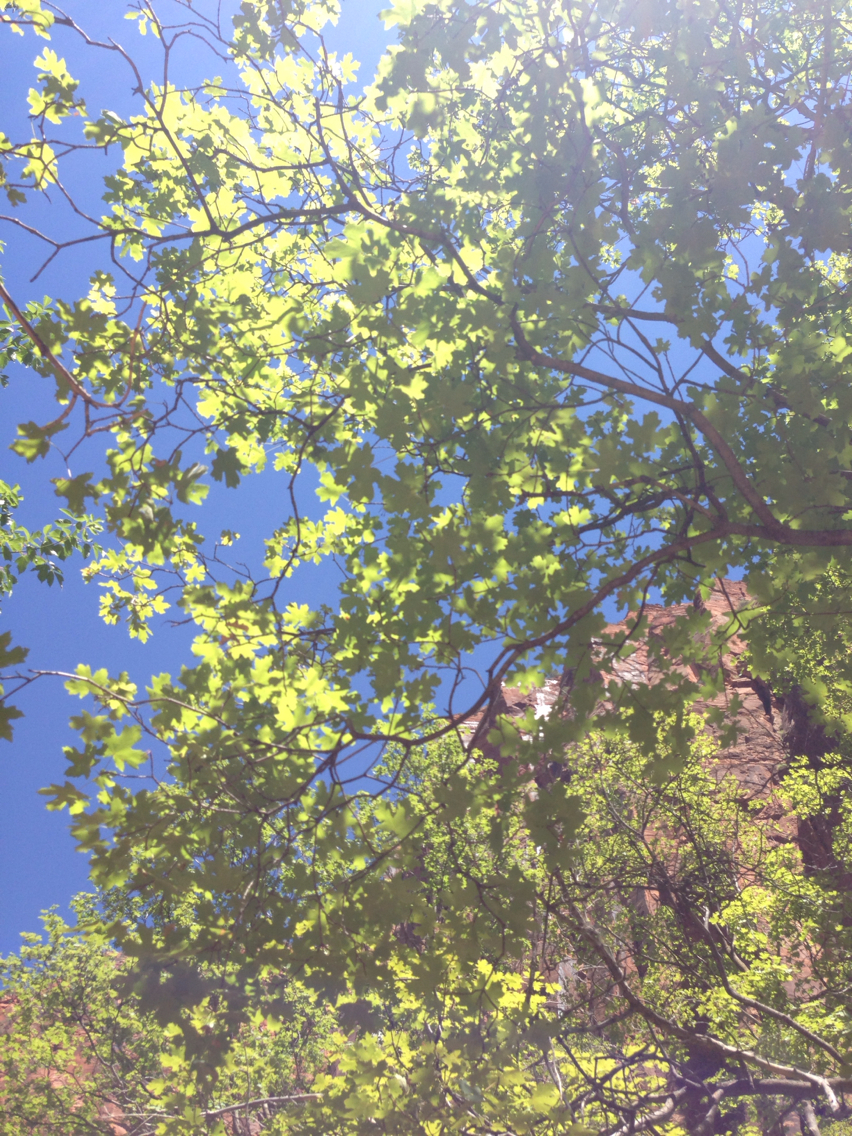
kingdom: Plantae
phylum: Tracheophyta
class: Magnoliopsida
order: Sapindales
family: Sapindaceae
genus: Acer
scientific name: Acer grandidentatum
